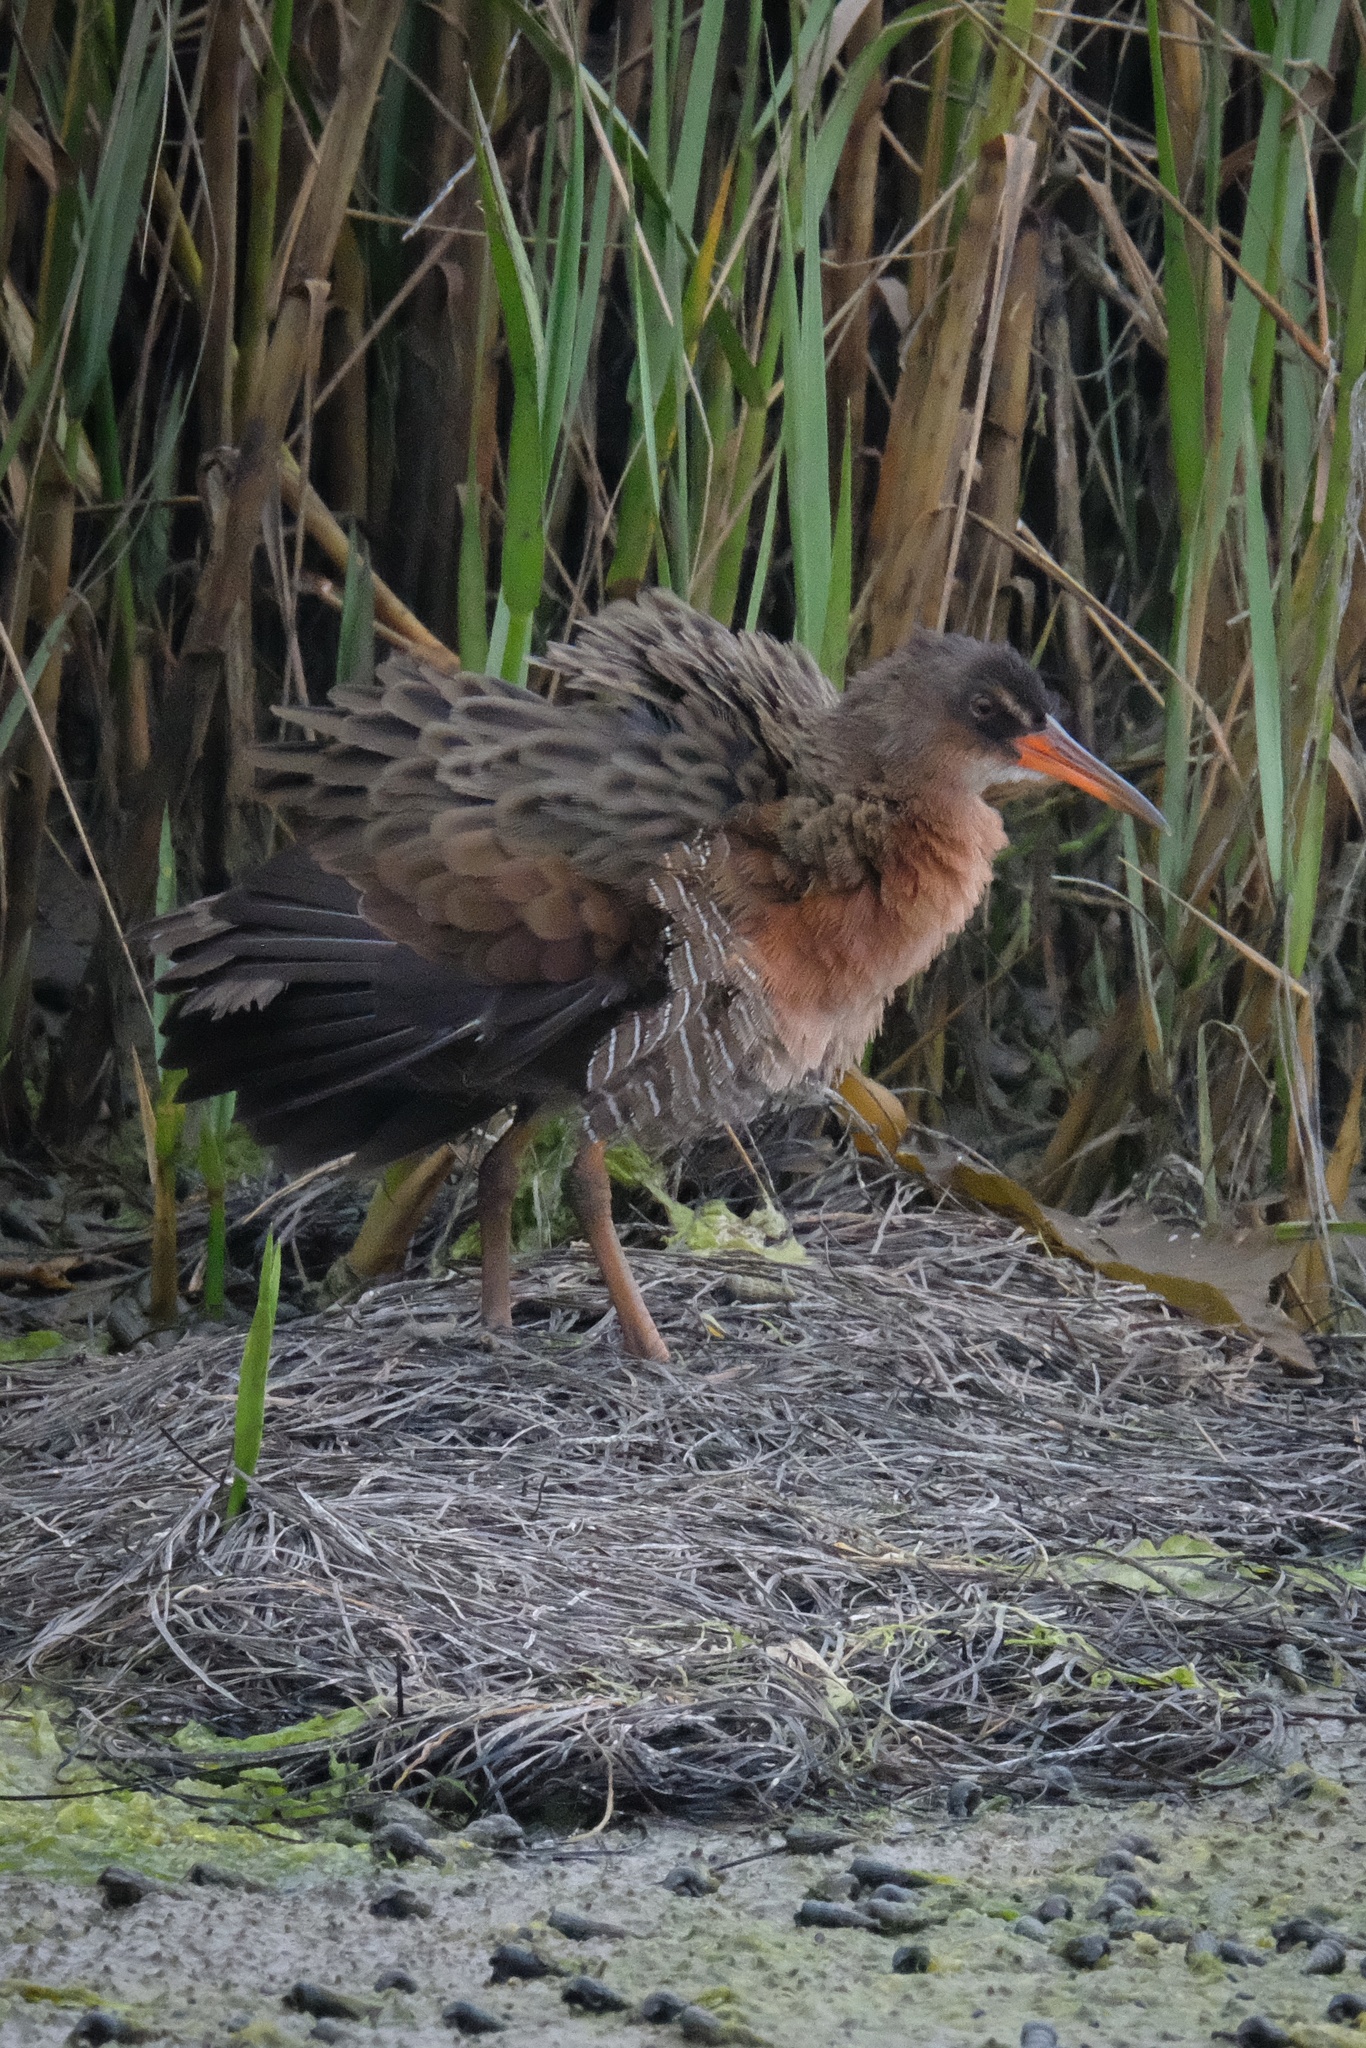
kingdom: Animalia
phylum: Chordata
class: Aves
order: Gruiformes
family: Rallidae
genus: Rallus
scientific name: Rallus obsoletus
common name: Ridgway's rail
